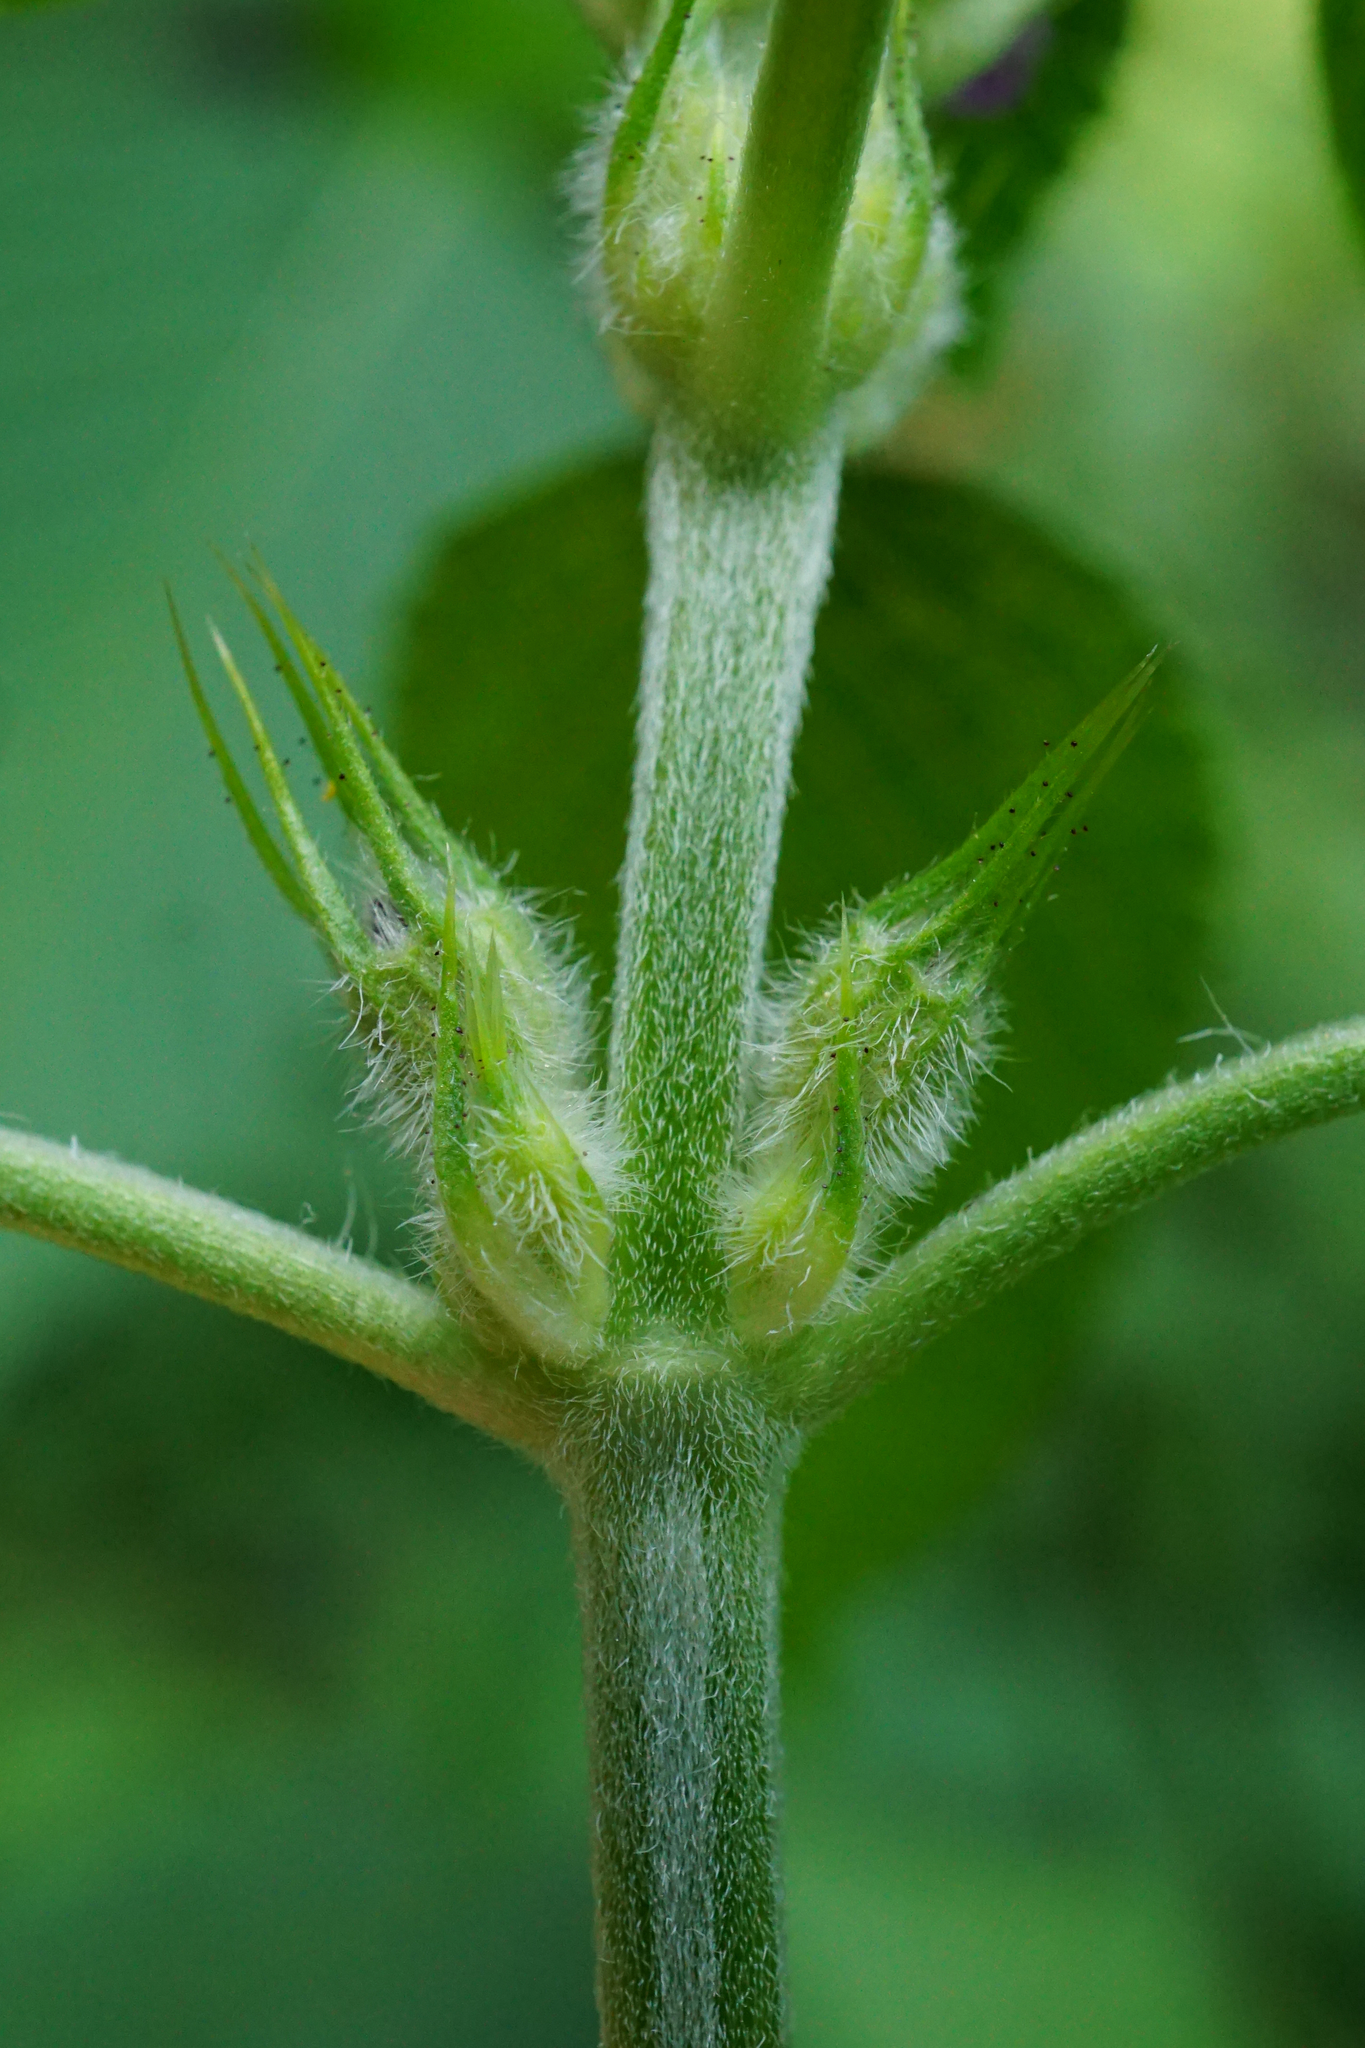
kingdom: Plantae
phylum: Tracheophyta
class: Magnoliopsida
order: Lamiales
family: Lamiaceae
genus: Galeopsis
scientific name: Galeopsis pubescens
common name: Downy hemp-nettle
